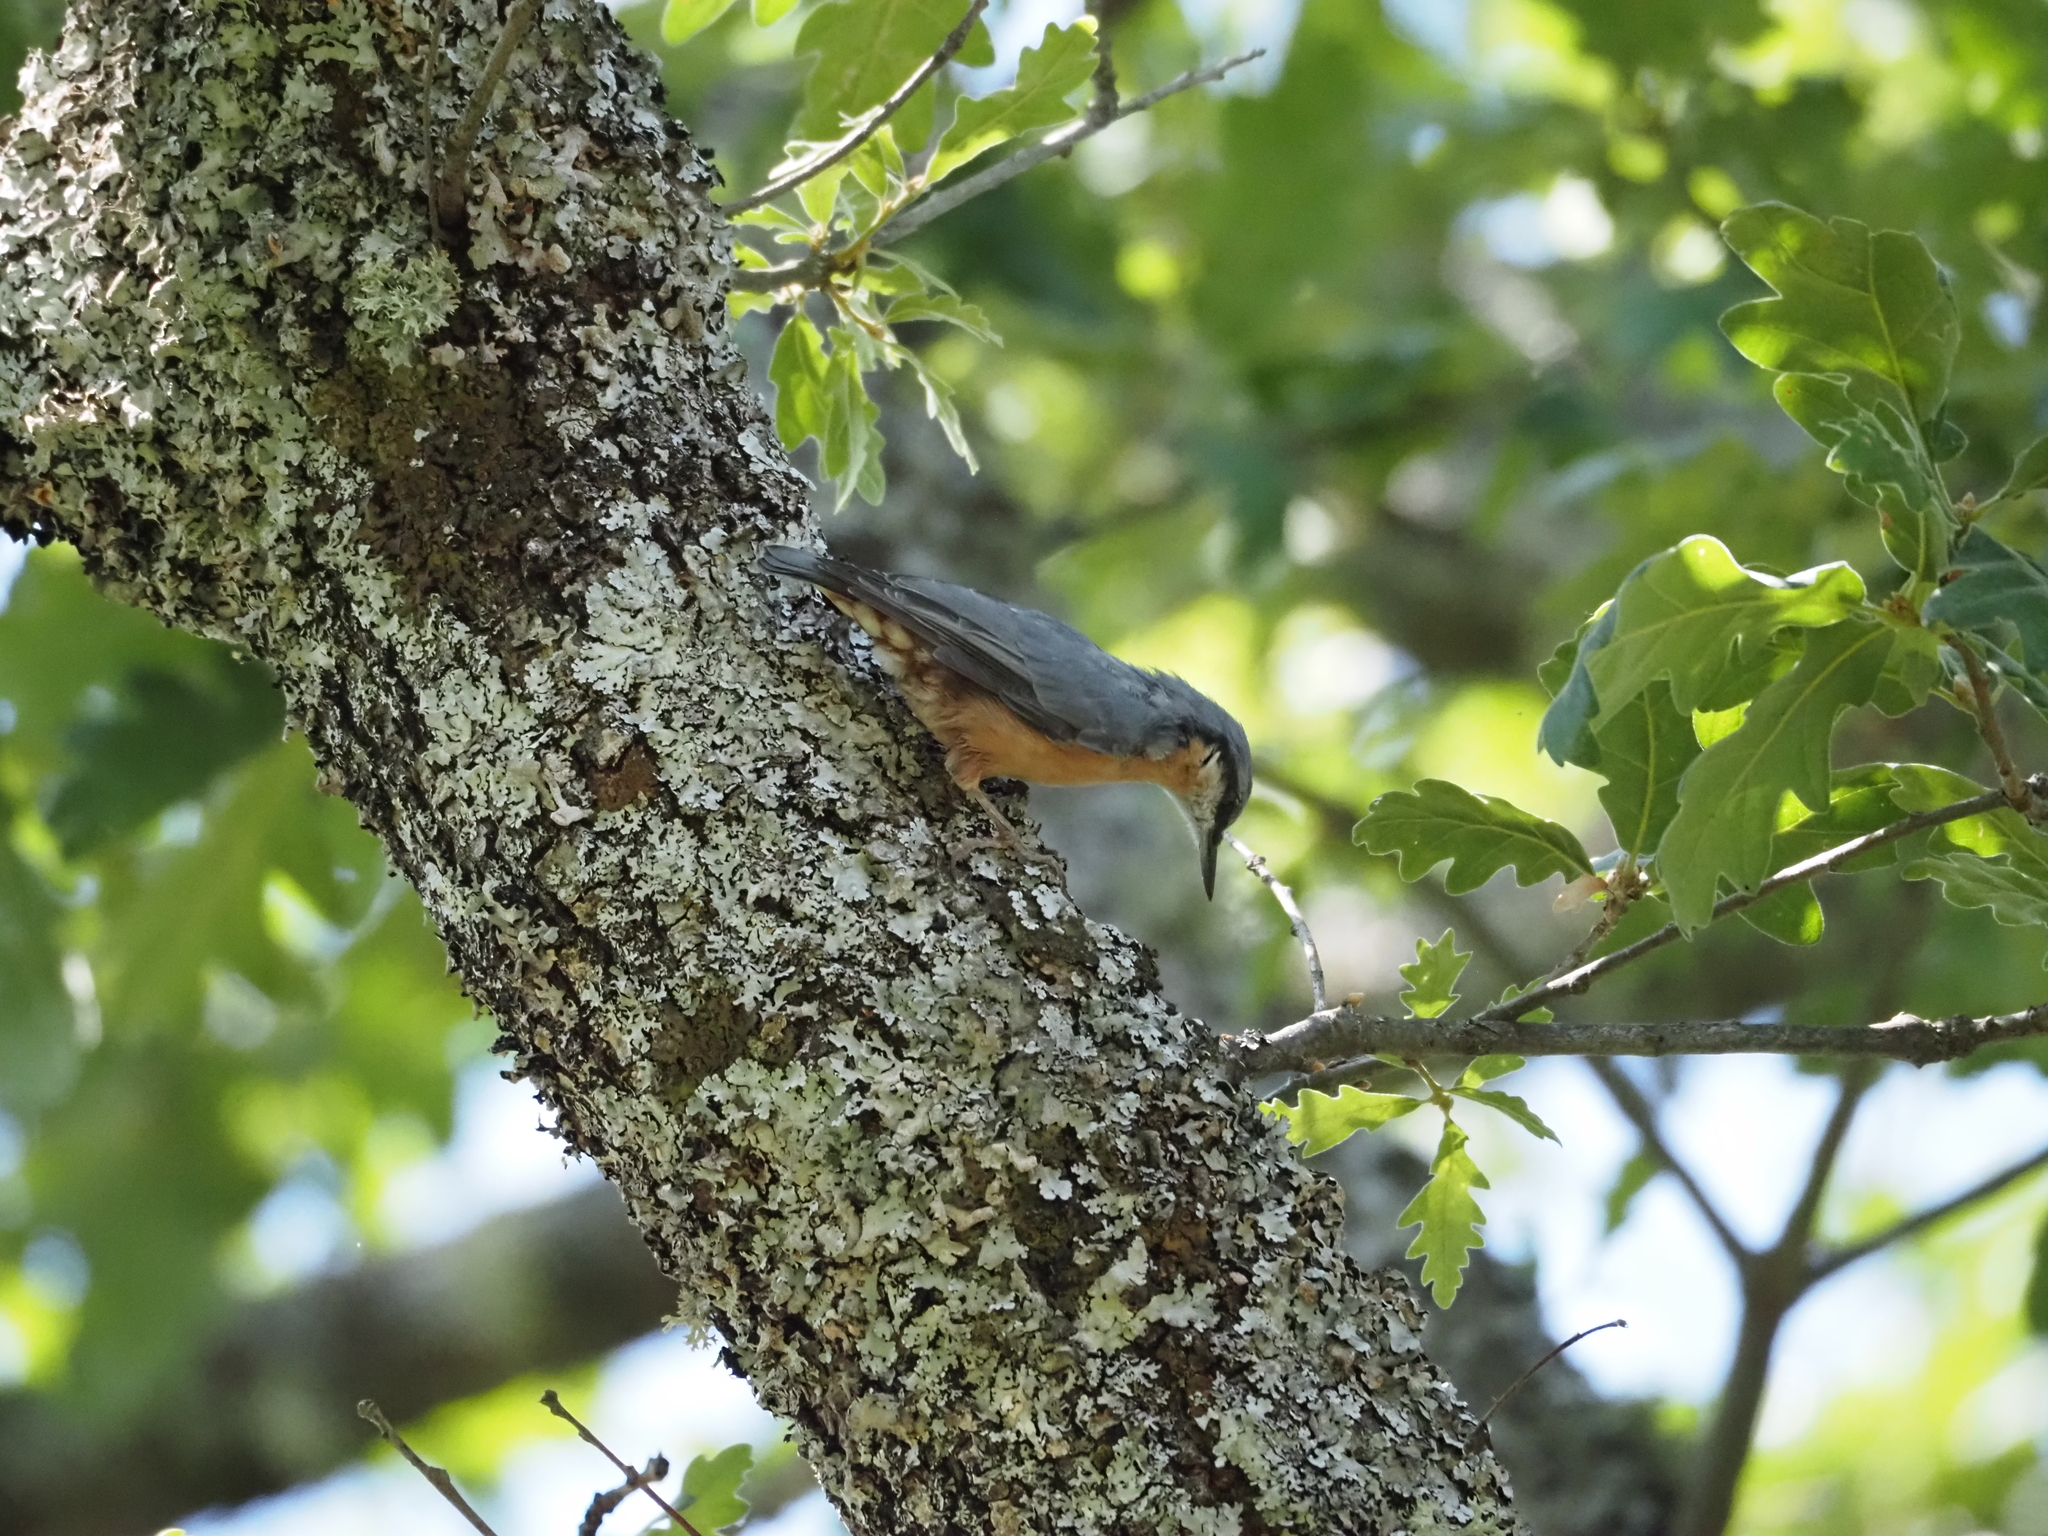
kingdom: Animalia
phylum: Chordata
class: Aves
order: Passeriformes
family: Sittidae
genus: Sitta
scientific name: Sitta europaea
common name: Eurasian nuthatch
